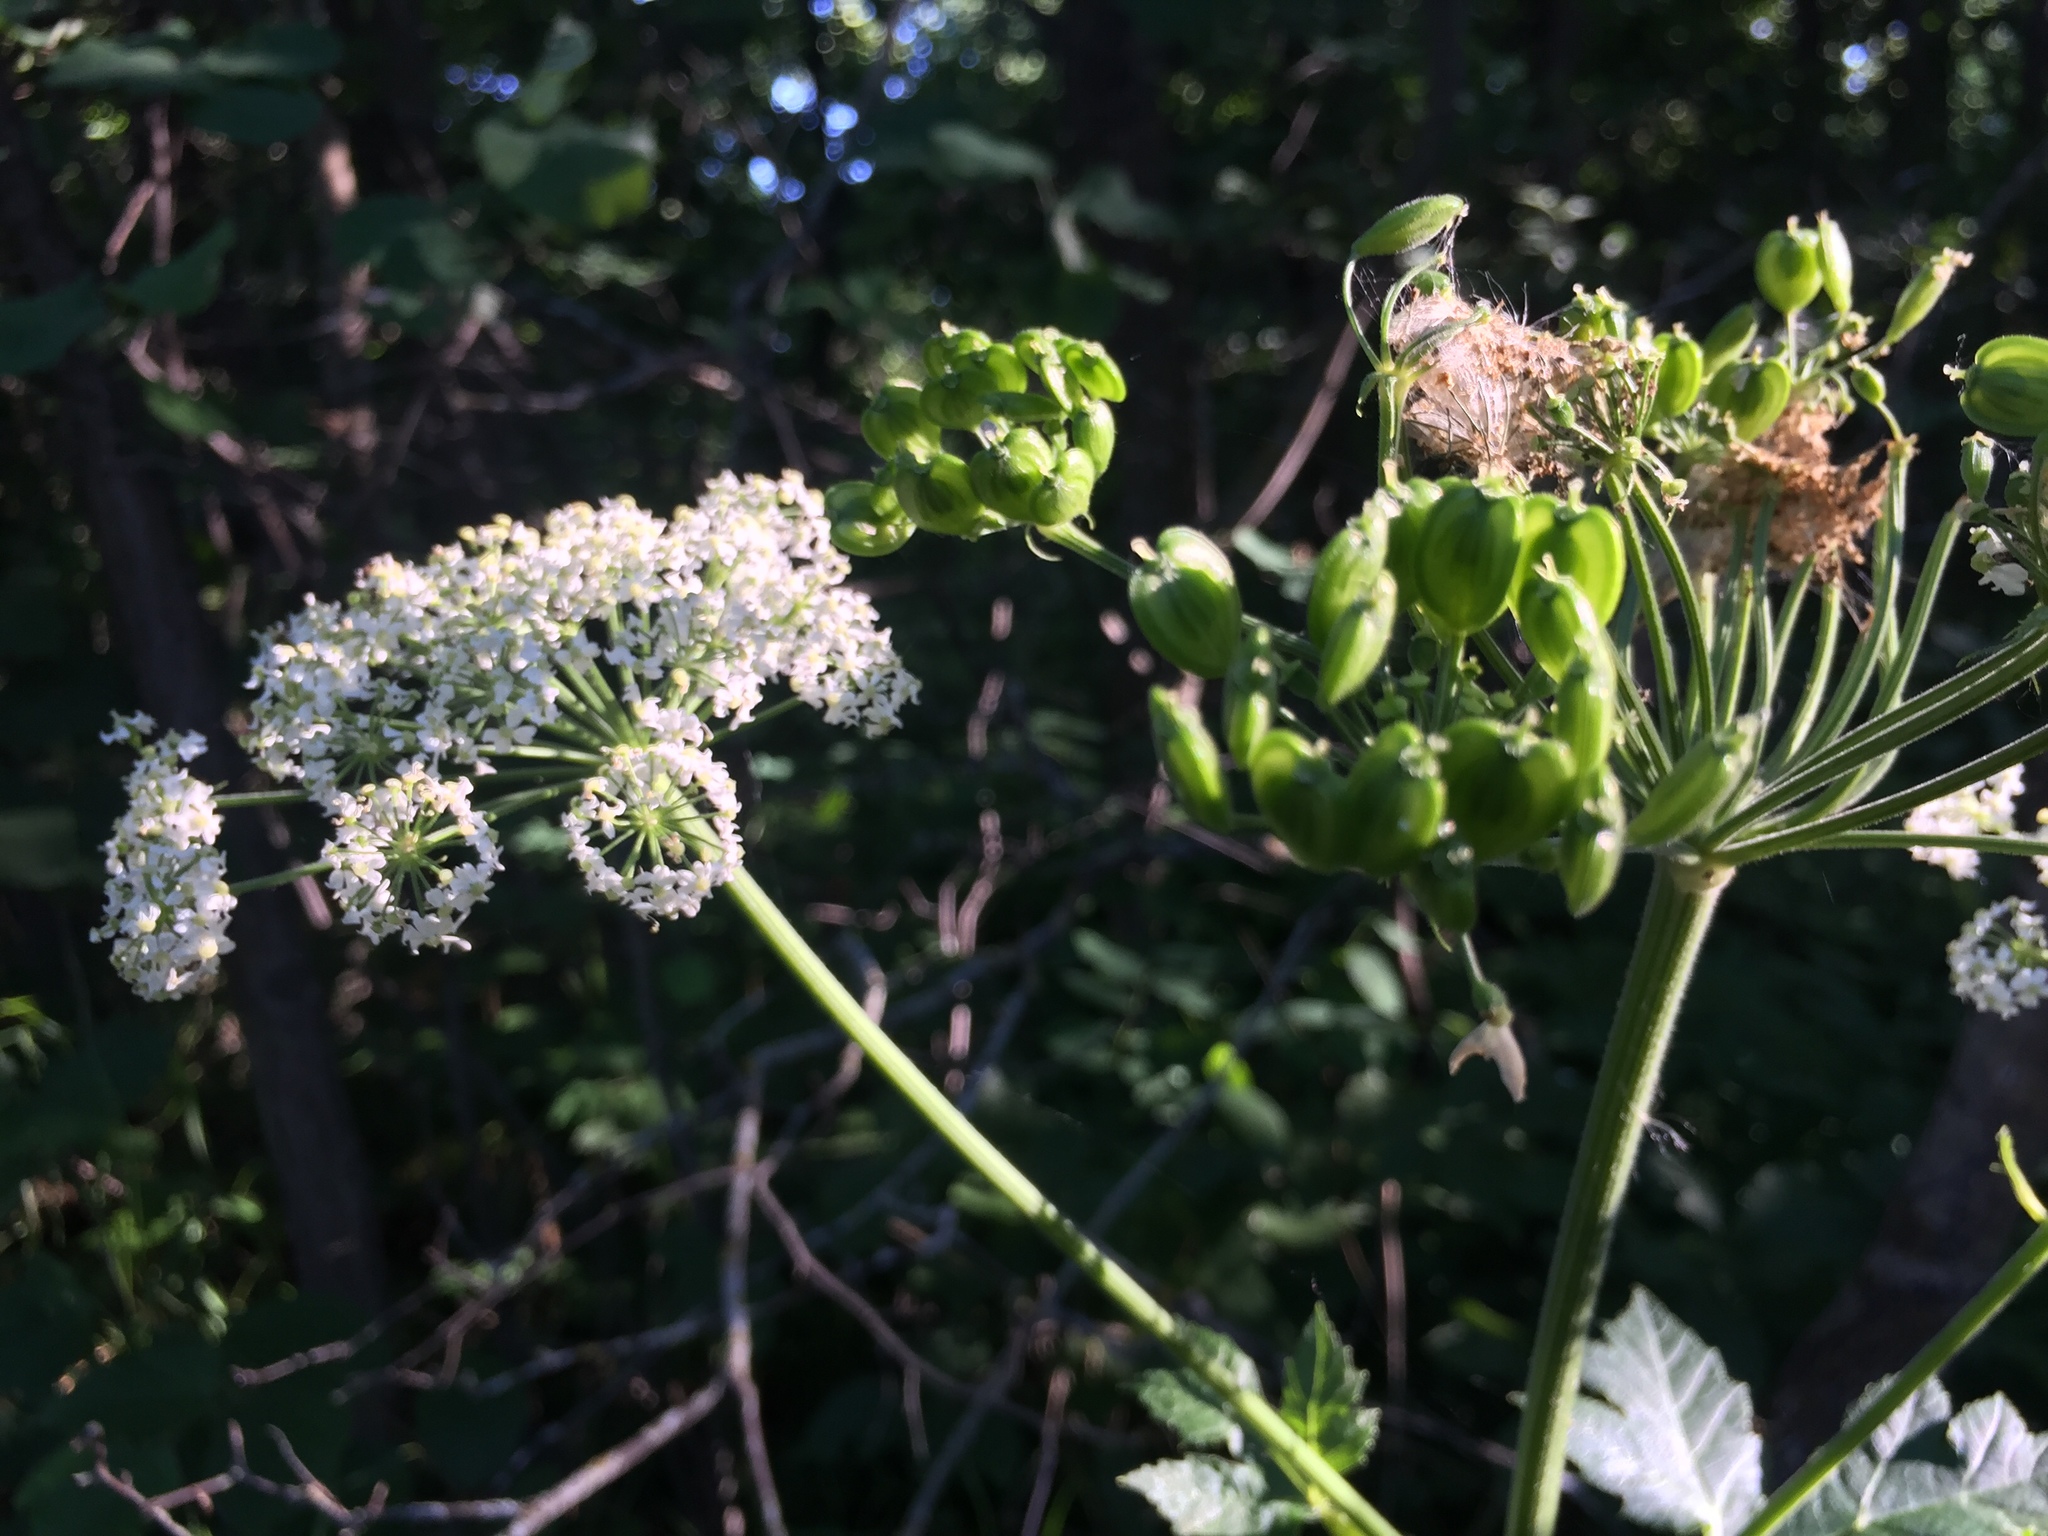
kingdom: Plantae
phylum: Tracheophyta
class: Magnoliopsida
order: Apiales
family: Apiaceae
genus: Heracleum
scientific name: Heracleum maximum
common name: American cow parsnip
